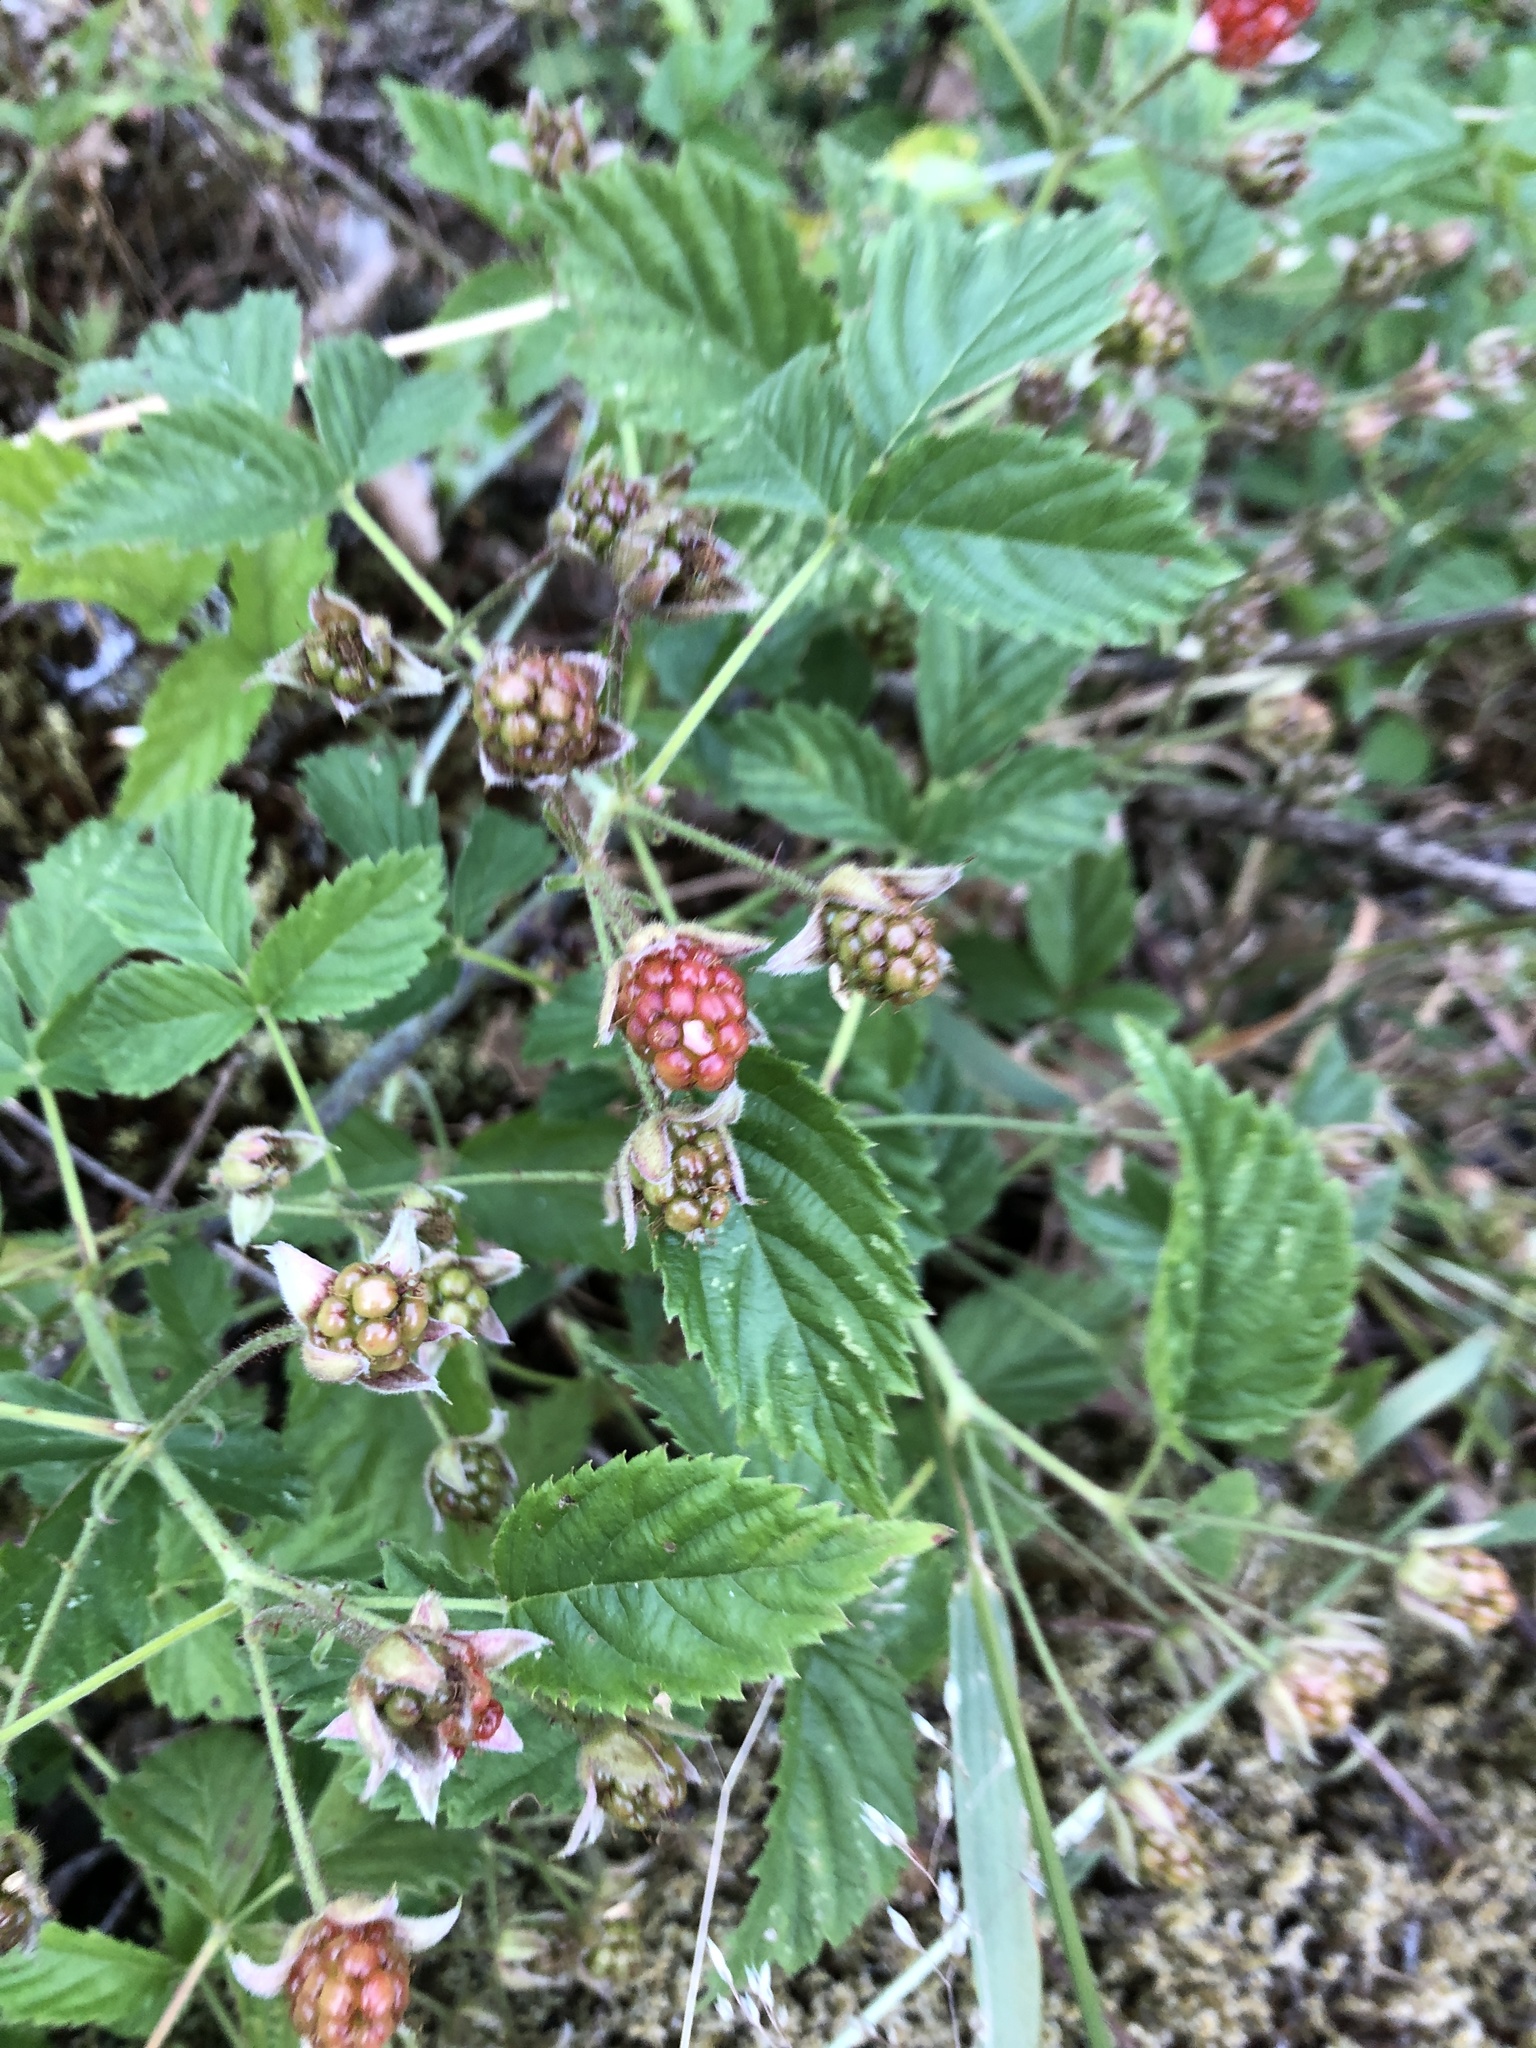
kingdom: Plantae
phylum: Tracheophyta
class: Magnoliopsida
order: Rosales
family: Rosaceae
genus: Rubus
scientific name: Rubus ursinus
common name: Pacific blackberry
